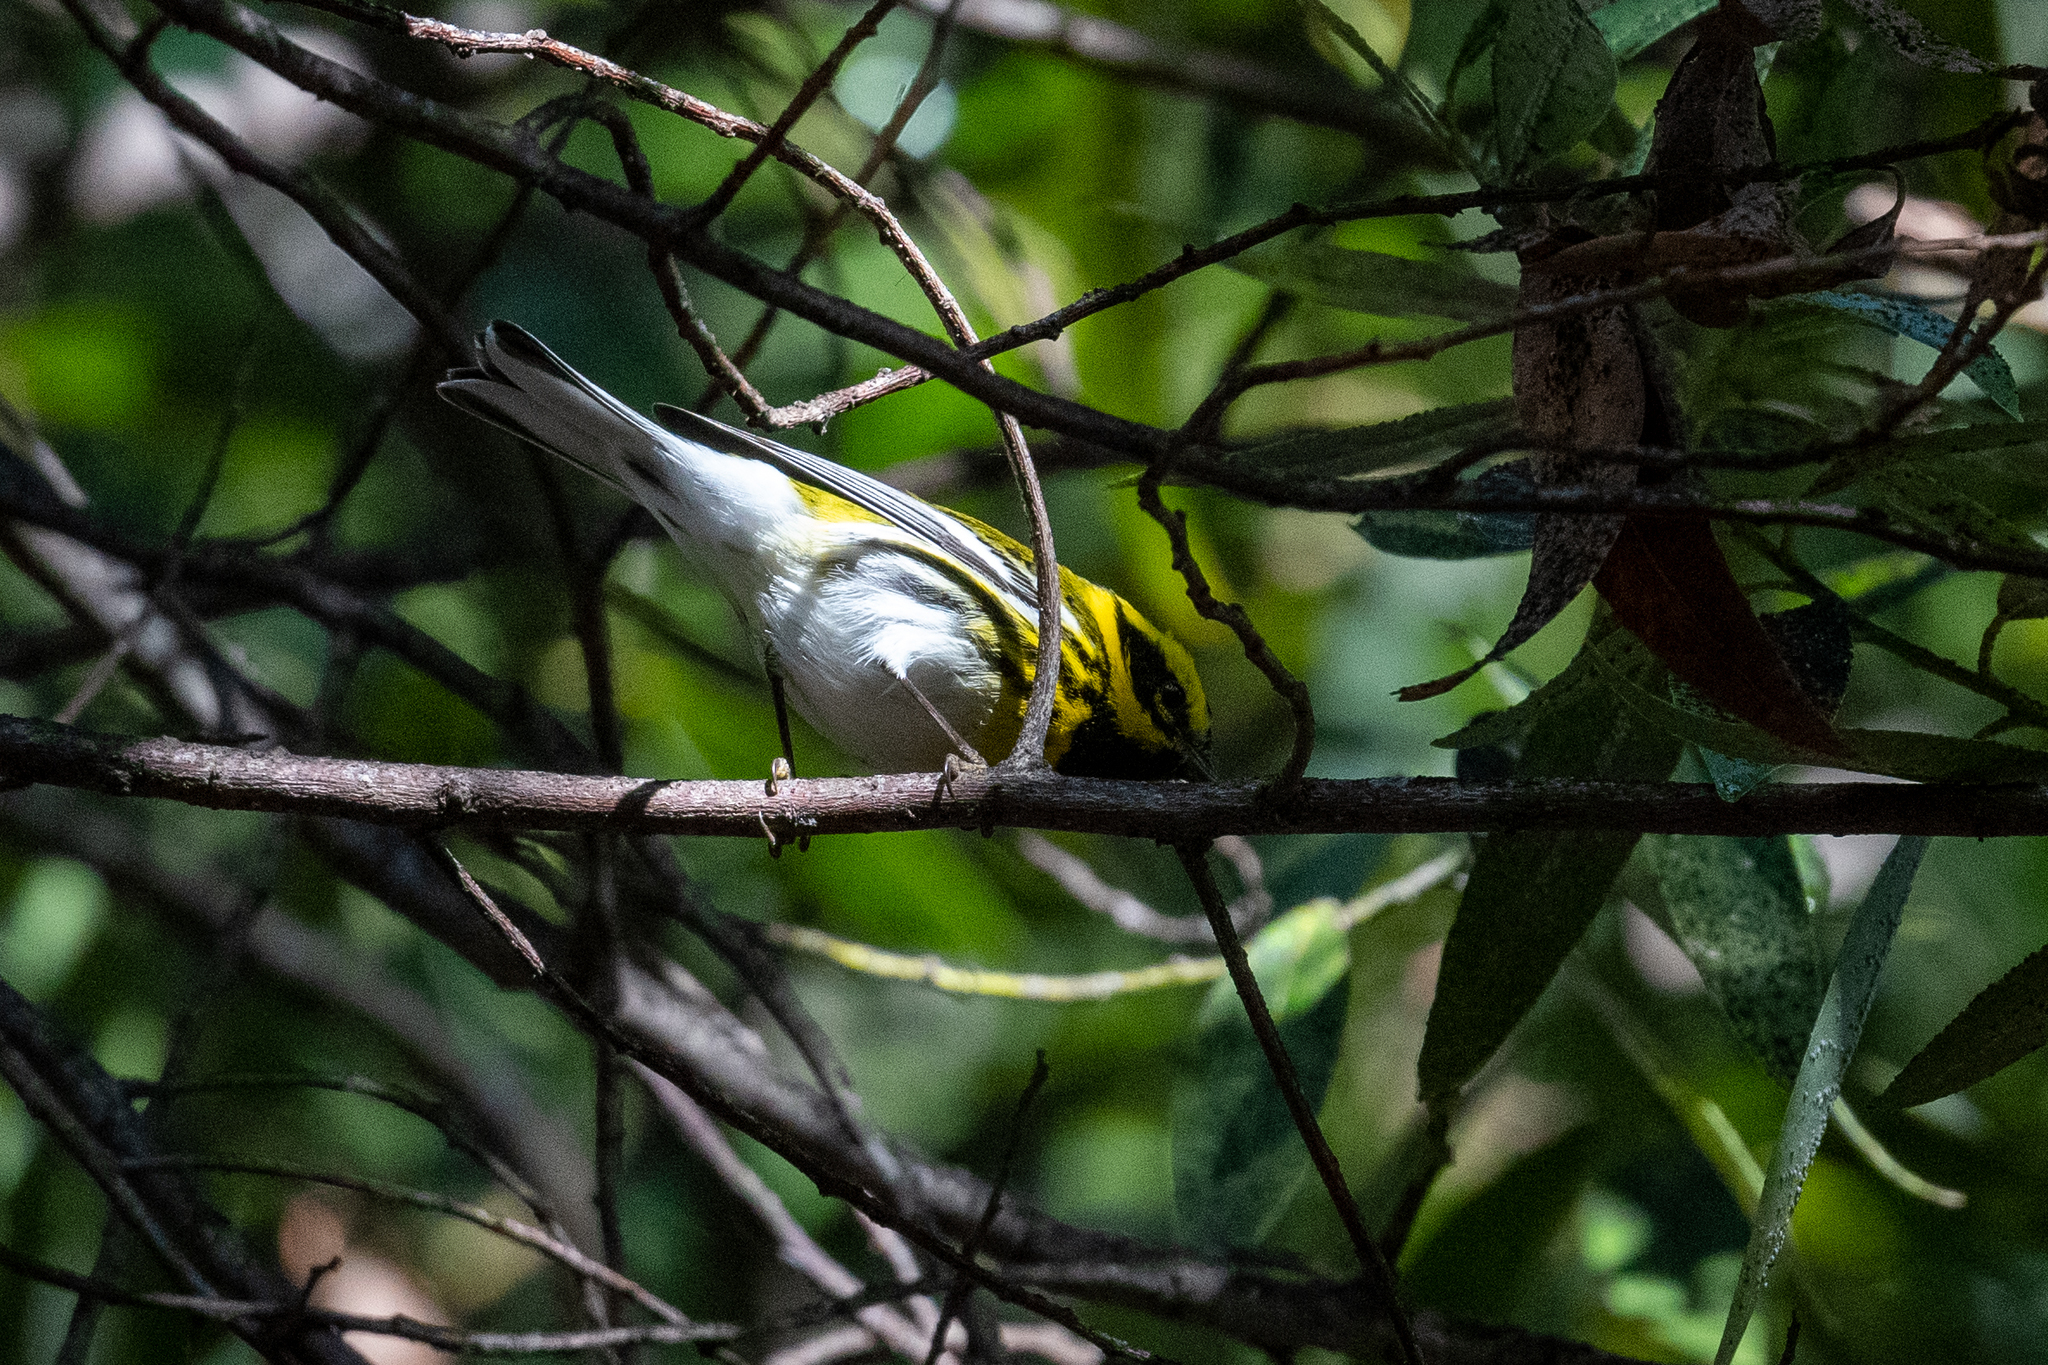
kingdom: Animalia
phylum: Chordata
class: Aves
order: Passeriformes
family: Parulidae
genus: Setophaga
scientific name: Setophaga townsendi
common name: Townsend's warbler
